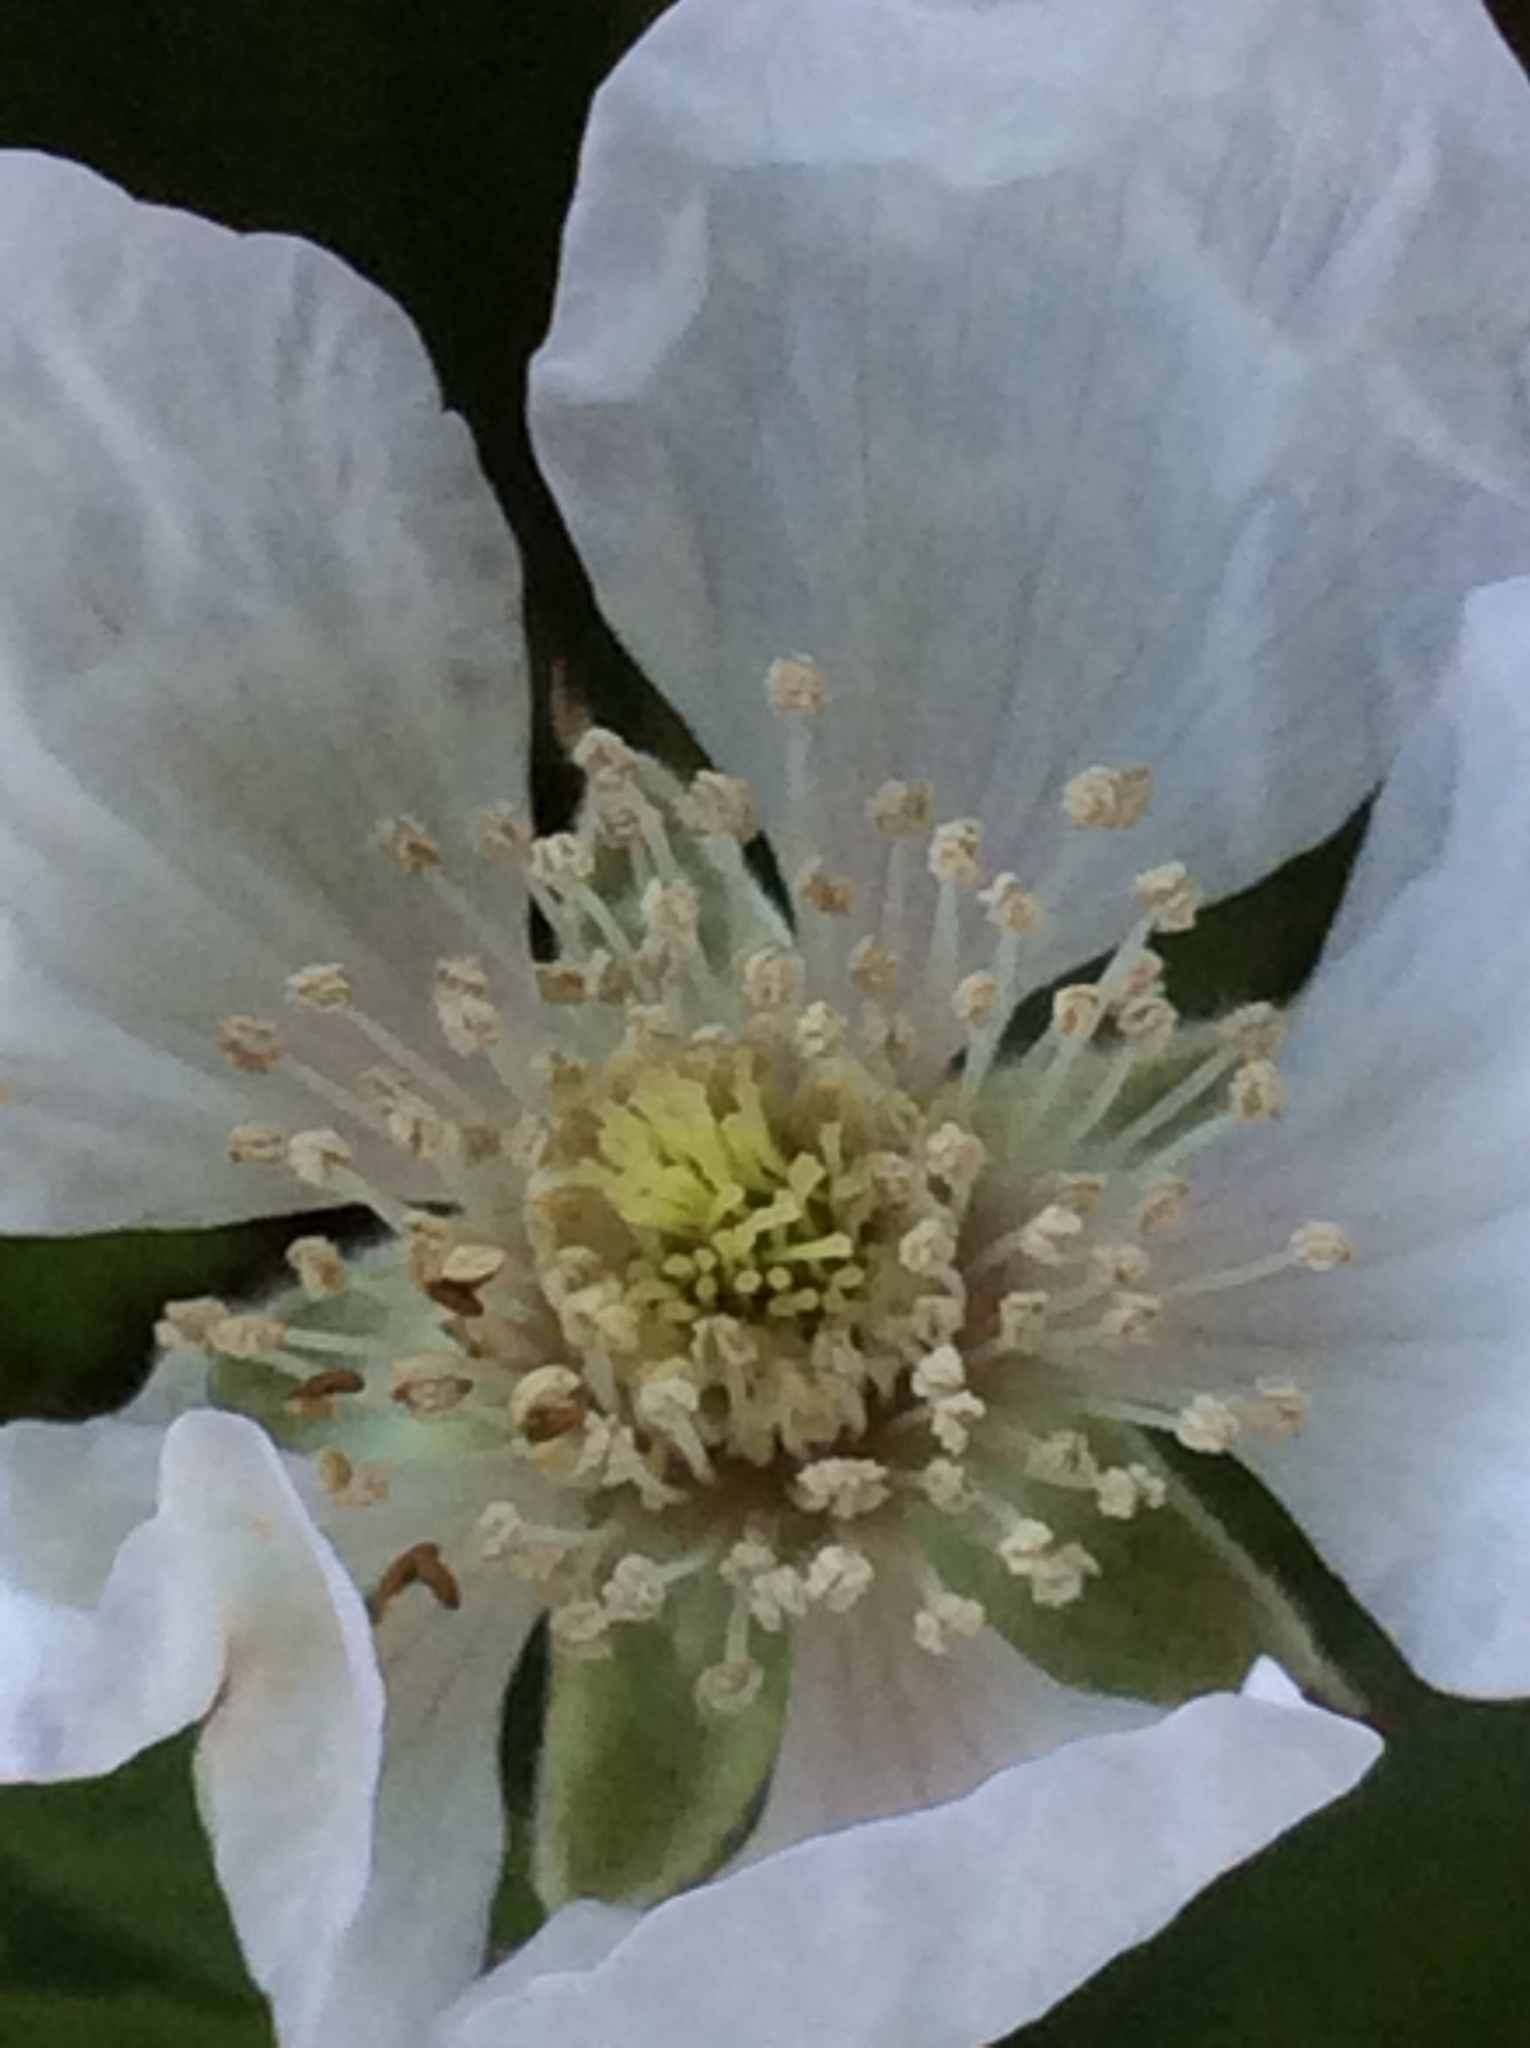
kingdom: Plantae
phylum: Tracheophyta
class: Magnoliopsida
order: Rosales
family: Rosaceae
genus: Rubus
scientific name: Rubus trivialis
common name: Southern dewberry
